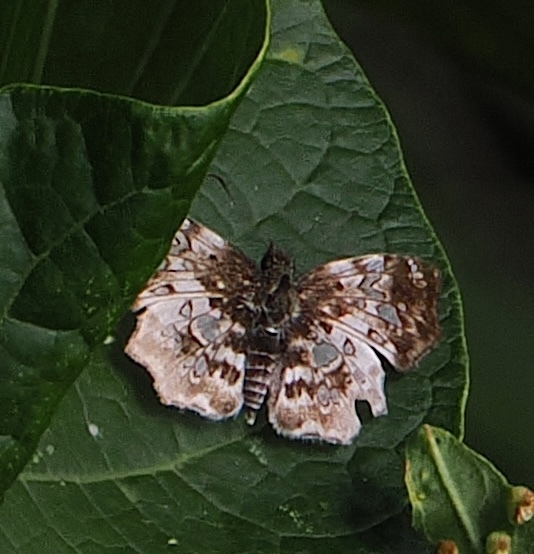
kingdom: Animalia
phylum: Arthropoda
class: Insecta
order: Lepidoptera
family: Hesperiidae
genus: Diaeus
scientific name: Diaeus lacaena
